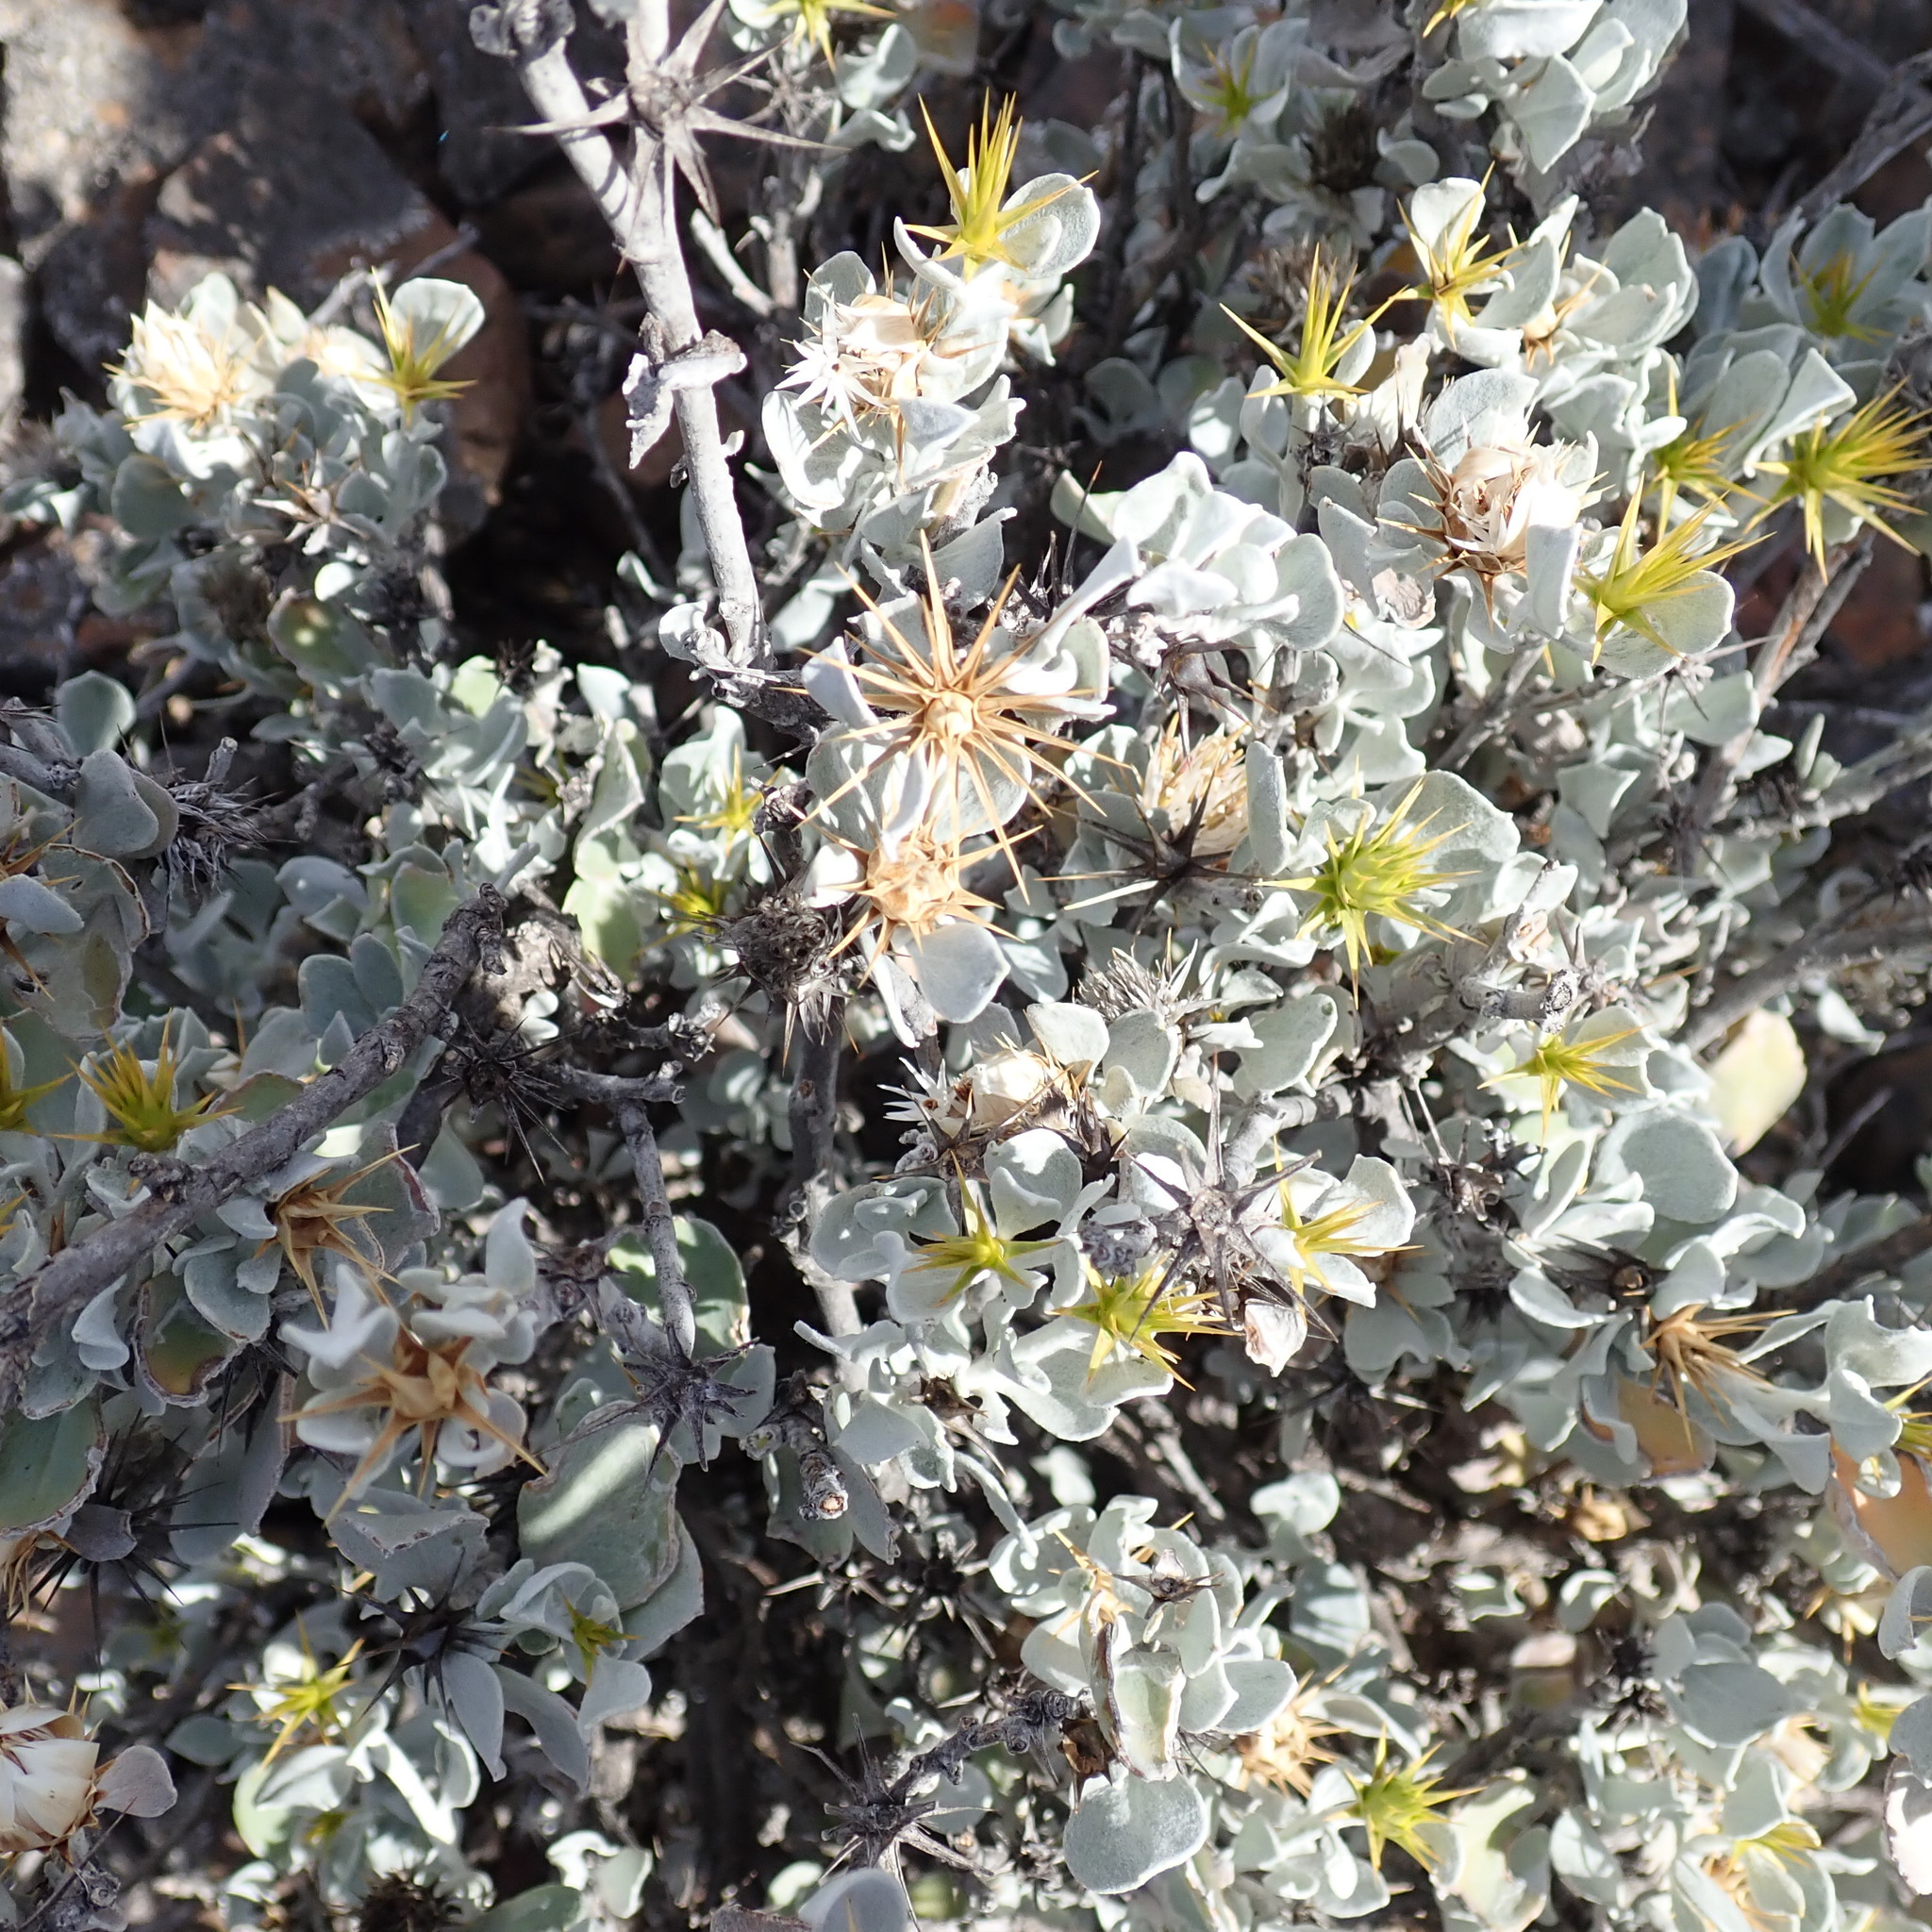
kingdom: Plantae
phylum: Tracheophyta
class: Magnoliopsida
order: Asterales
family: Asteraceae
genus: Berkheya
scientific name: Berkheya cuneata
